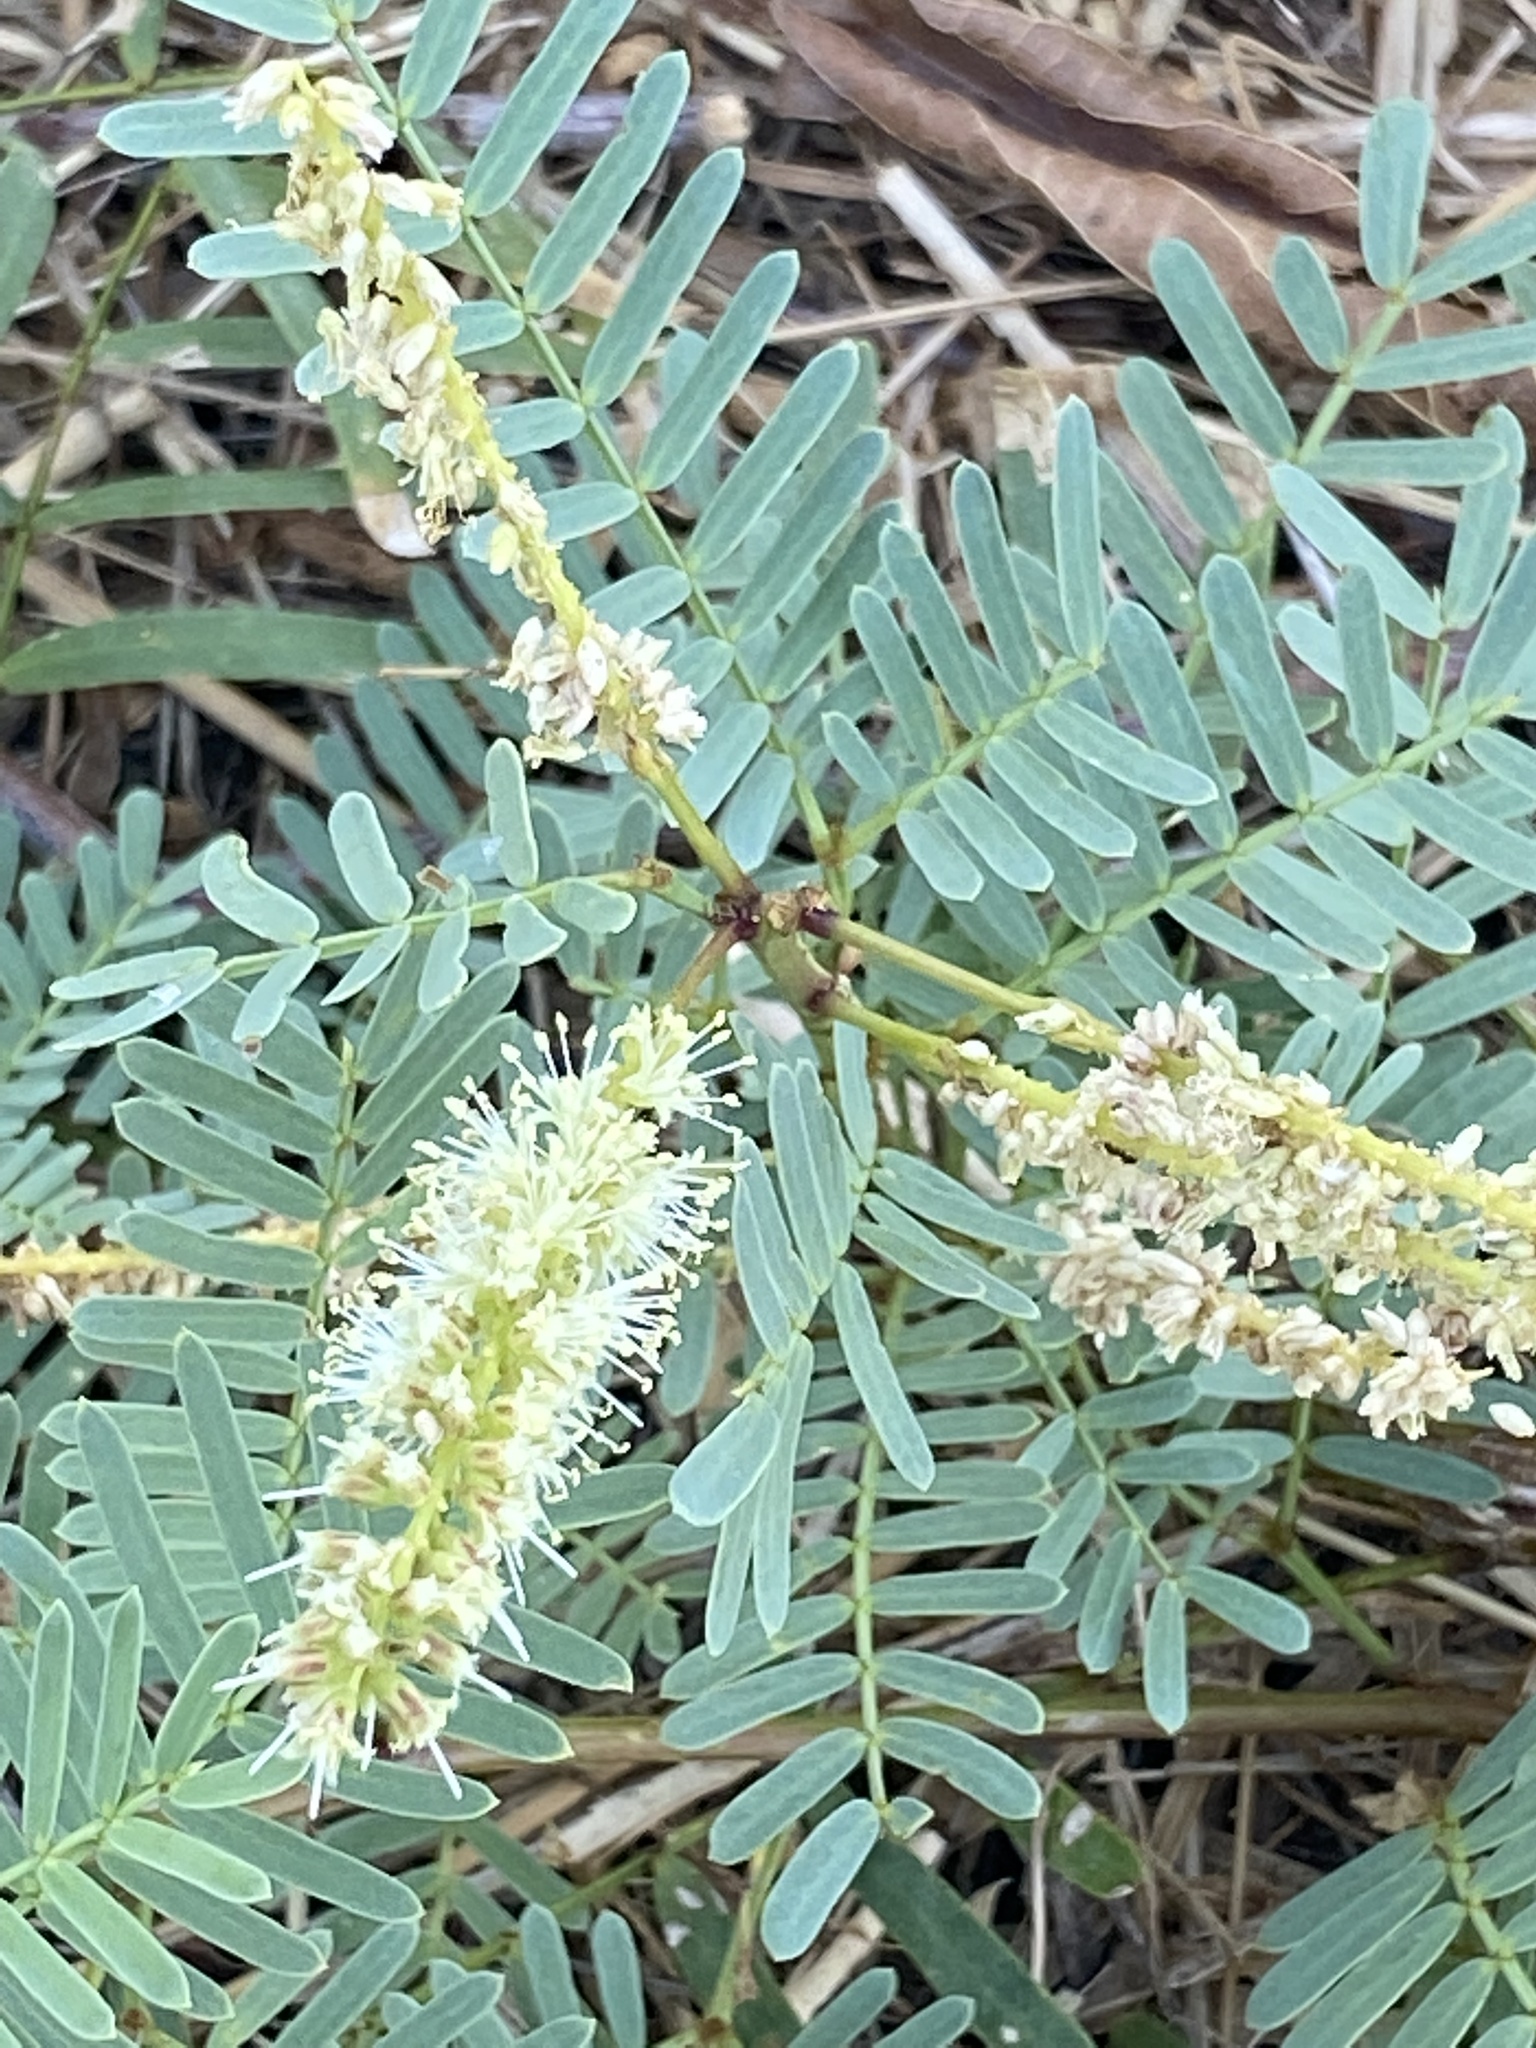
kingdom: Plantae
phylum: Tracheophyta
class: Magnoliopsida
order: Fabales
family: Fabaceae
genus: Prosopis
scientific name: Prosopis glandulosa
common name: Honey mesquite
